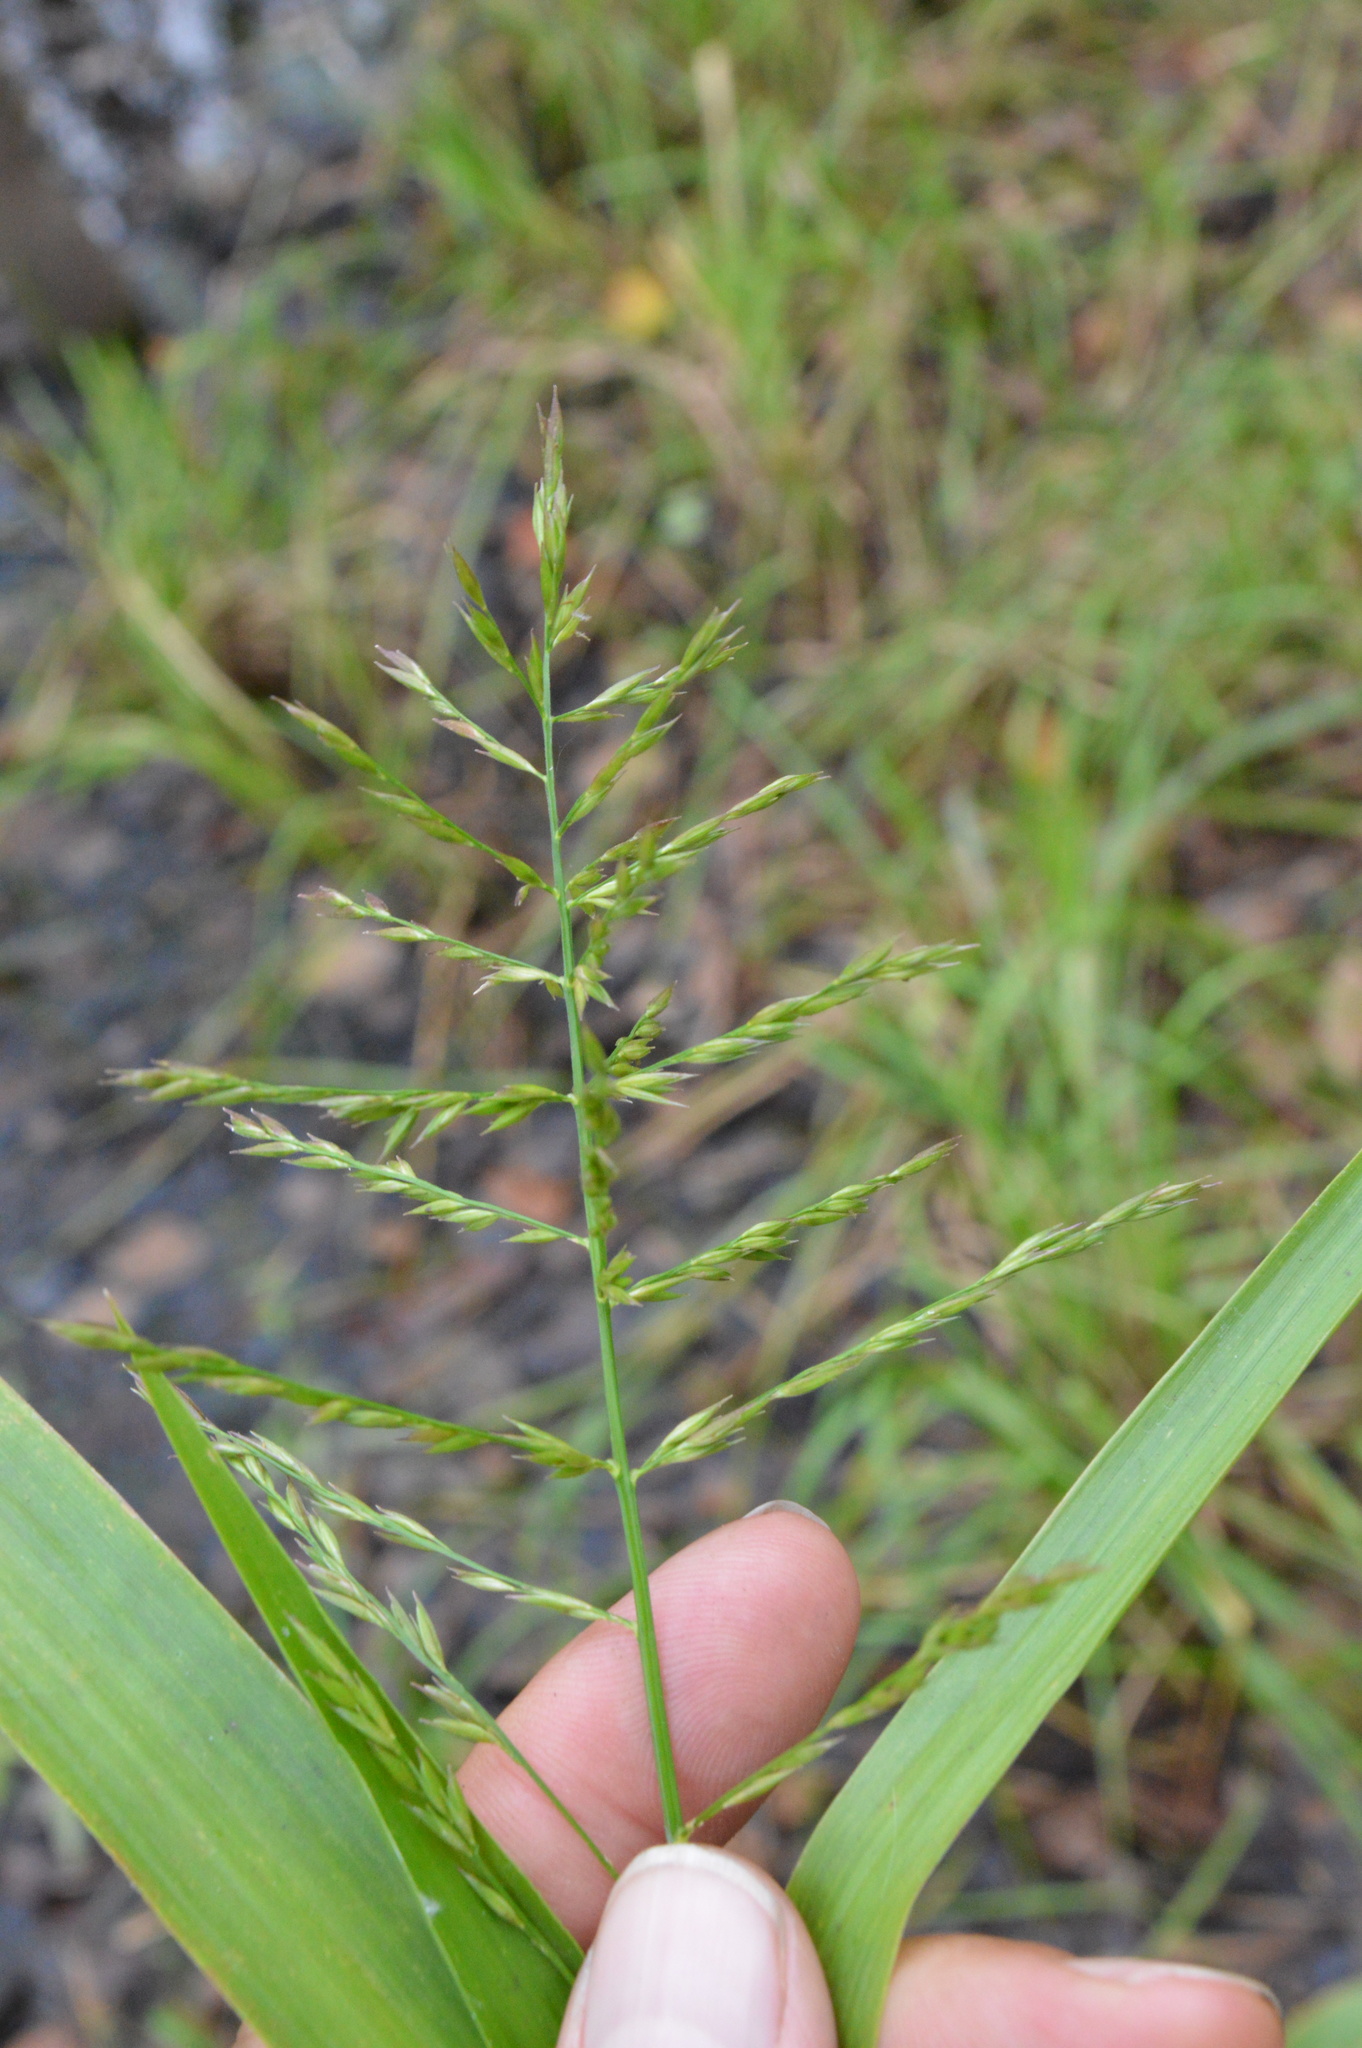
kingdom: Plantae
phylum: Tracheophyta
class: Liliopsida
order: Poales
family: Poaceae
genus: Panicum
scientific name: Panicum gymnocarpon
